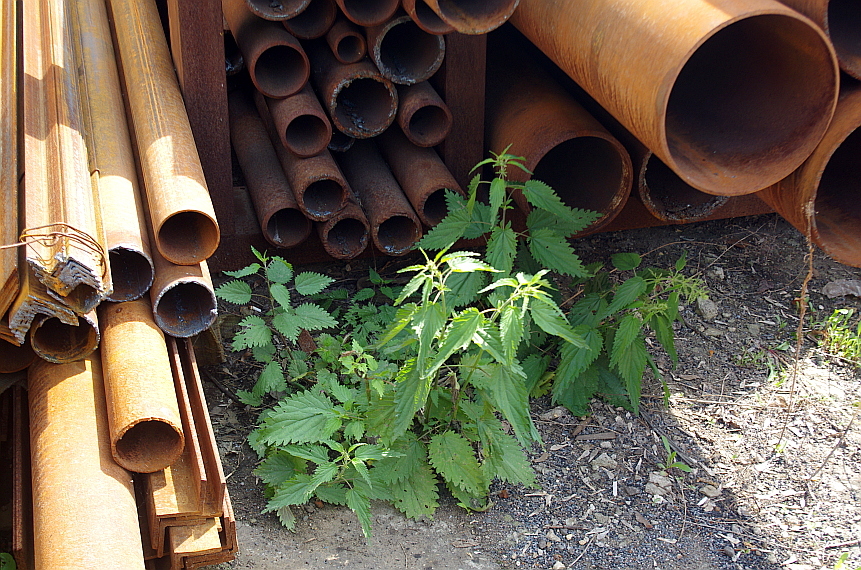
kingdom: Plantae
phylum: Tracheophyta
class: Magnoliopsida
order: Rosales
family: Urticaceae
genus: Urtica
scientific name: Urtica dioica
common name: Common nettle
